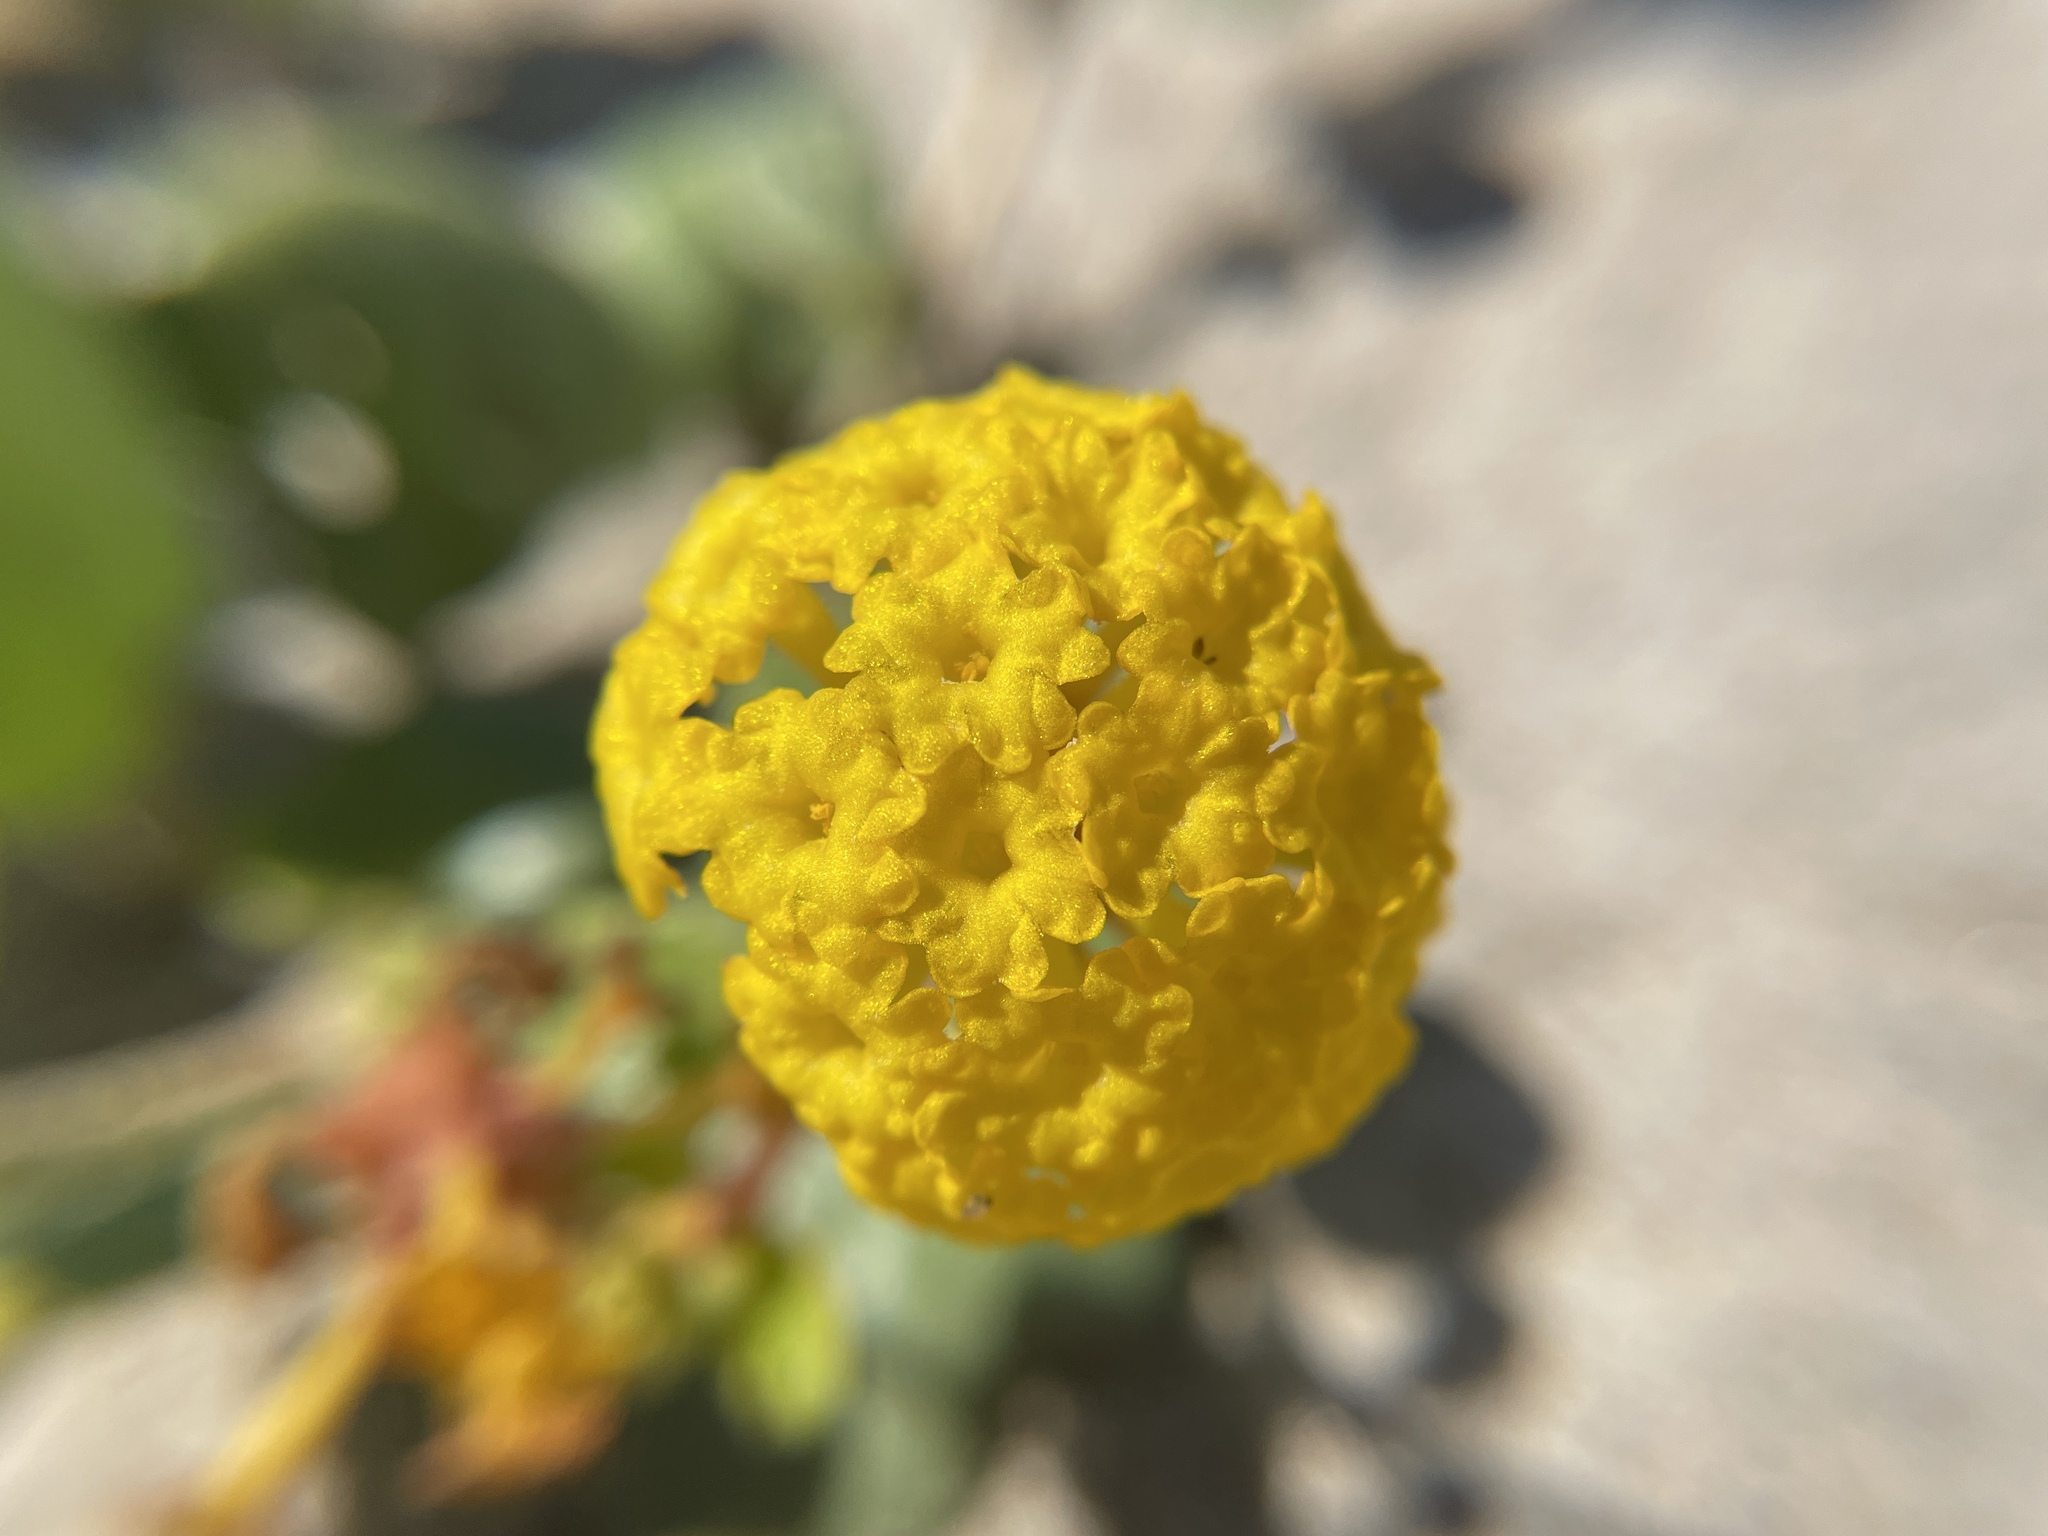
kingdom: Plantae
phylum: Tracheophyta
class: Magnoliopsida
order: Caryophyllales
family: Nyctaginaceae
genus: Abronia
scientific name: Abronia latifolia
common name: Yellow sand-verbena
